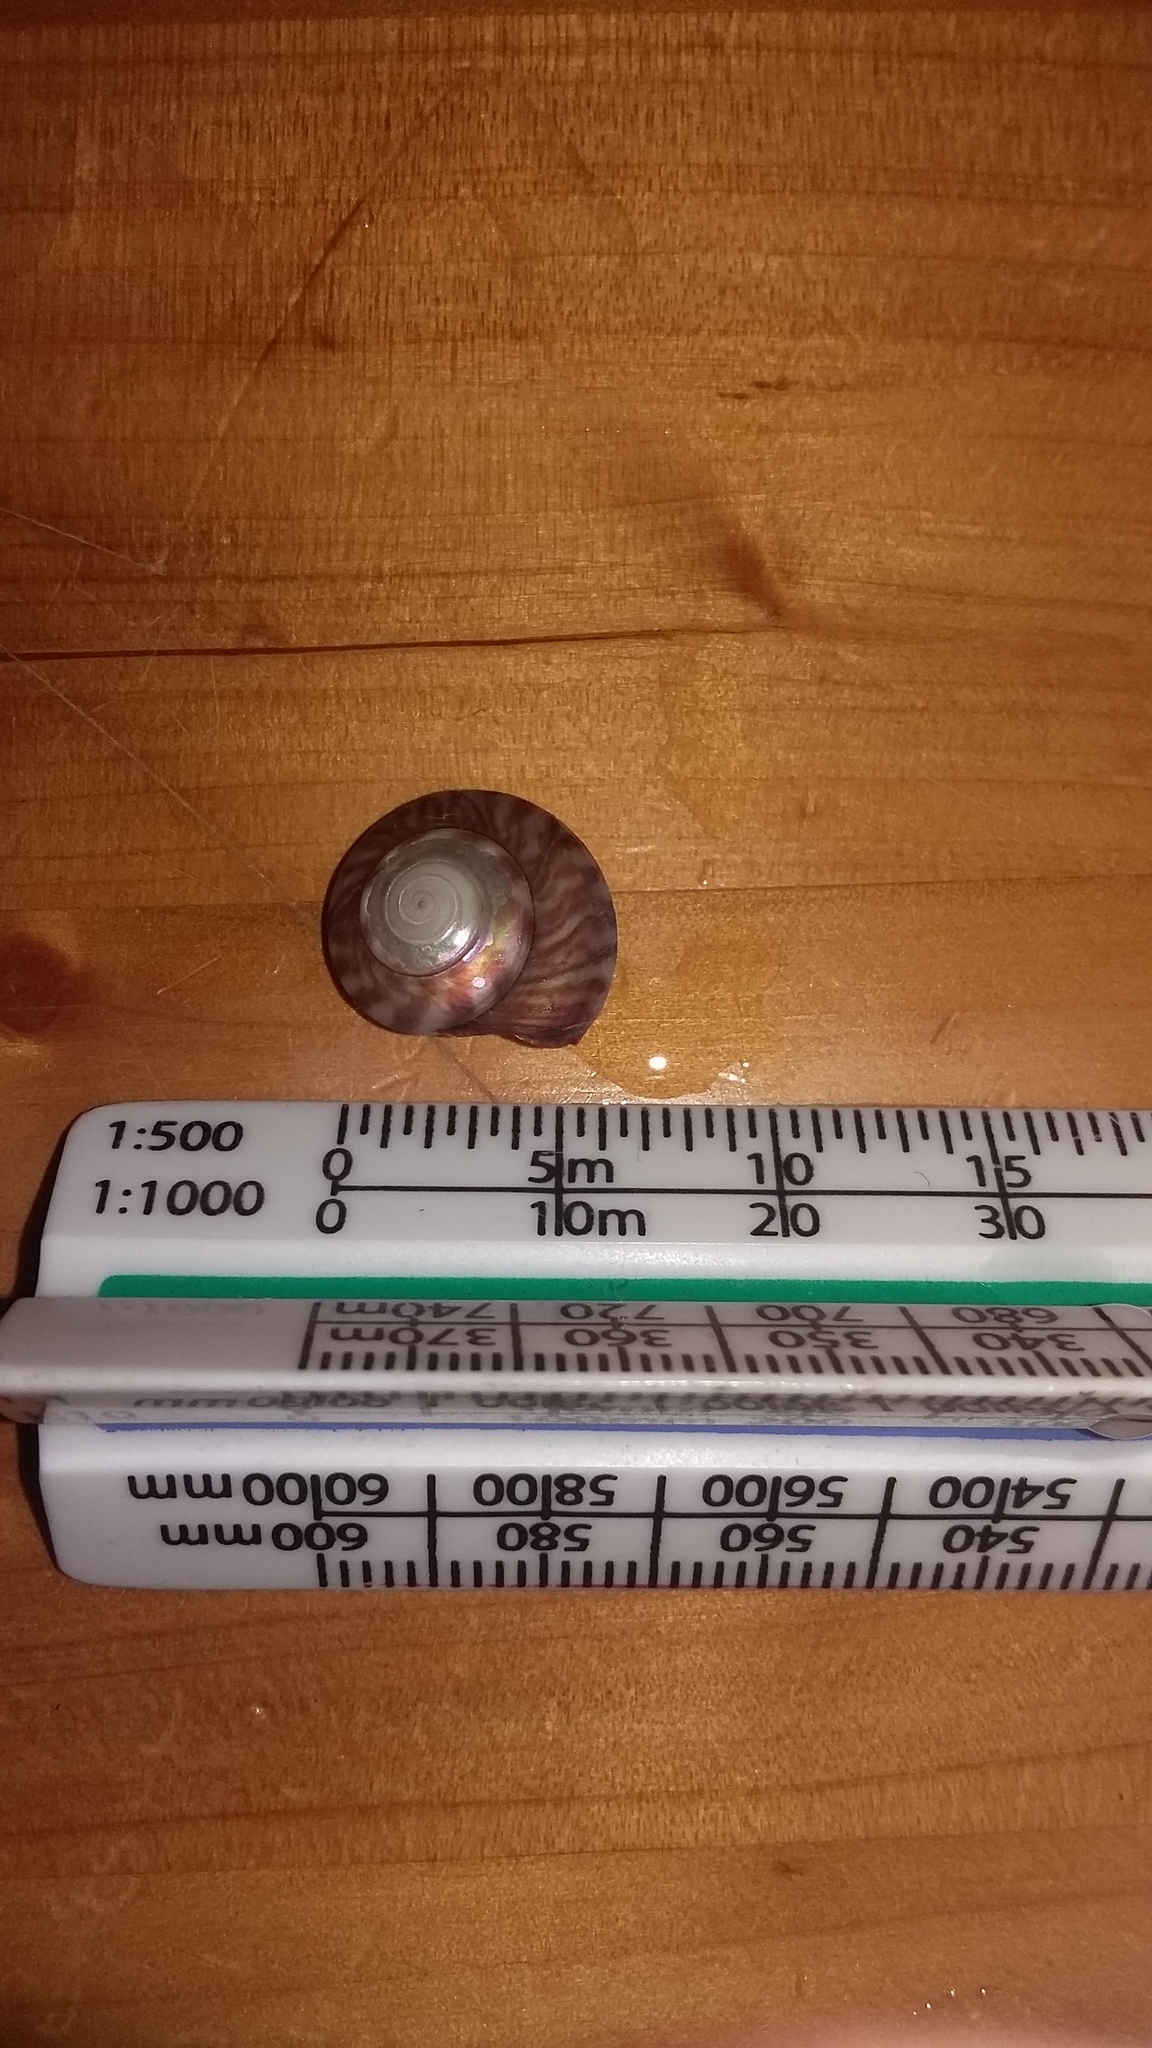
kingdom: Animalia
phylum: Mollusca
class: Gastropoda
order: Trochida
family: Trochidae
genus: Zethalia
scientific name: Zethalia zelandica
